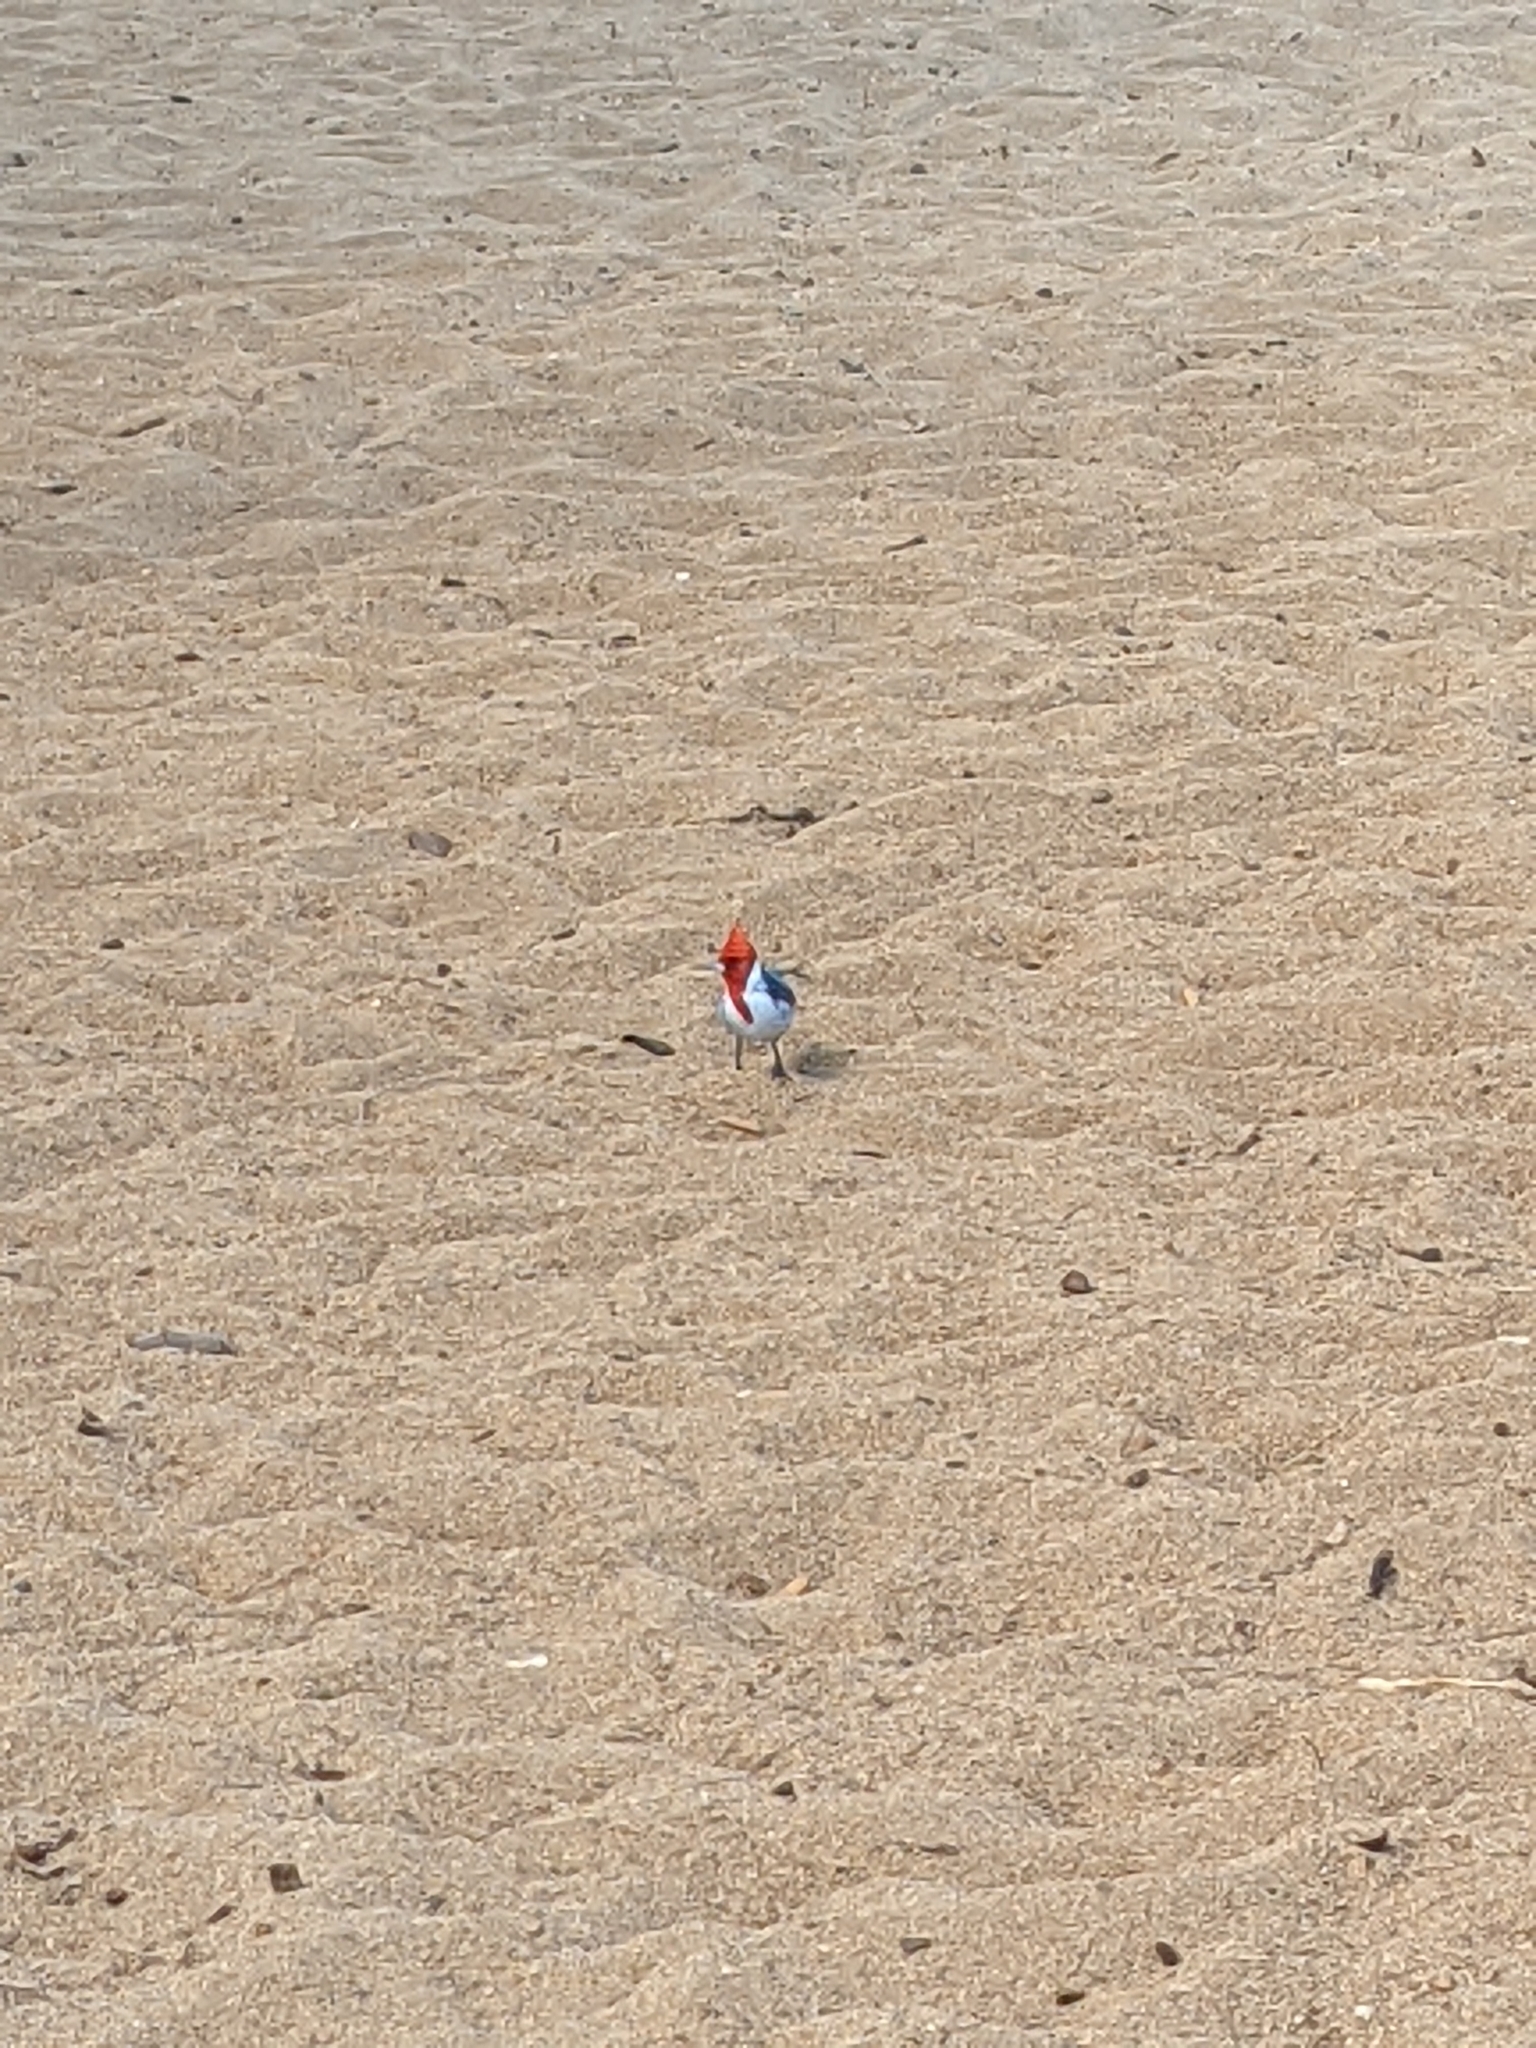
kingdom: Animalia
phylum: Chordata
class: Aves
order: Passeriformes
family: Thraupidae
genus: Paroaria
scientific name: Paroaria coronata
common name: Red-crested cardinal
